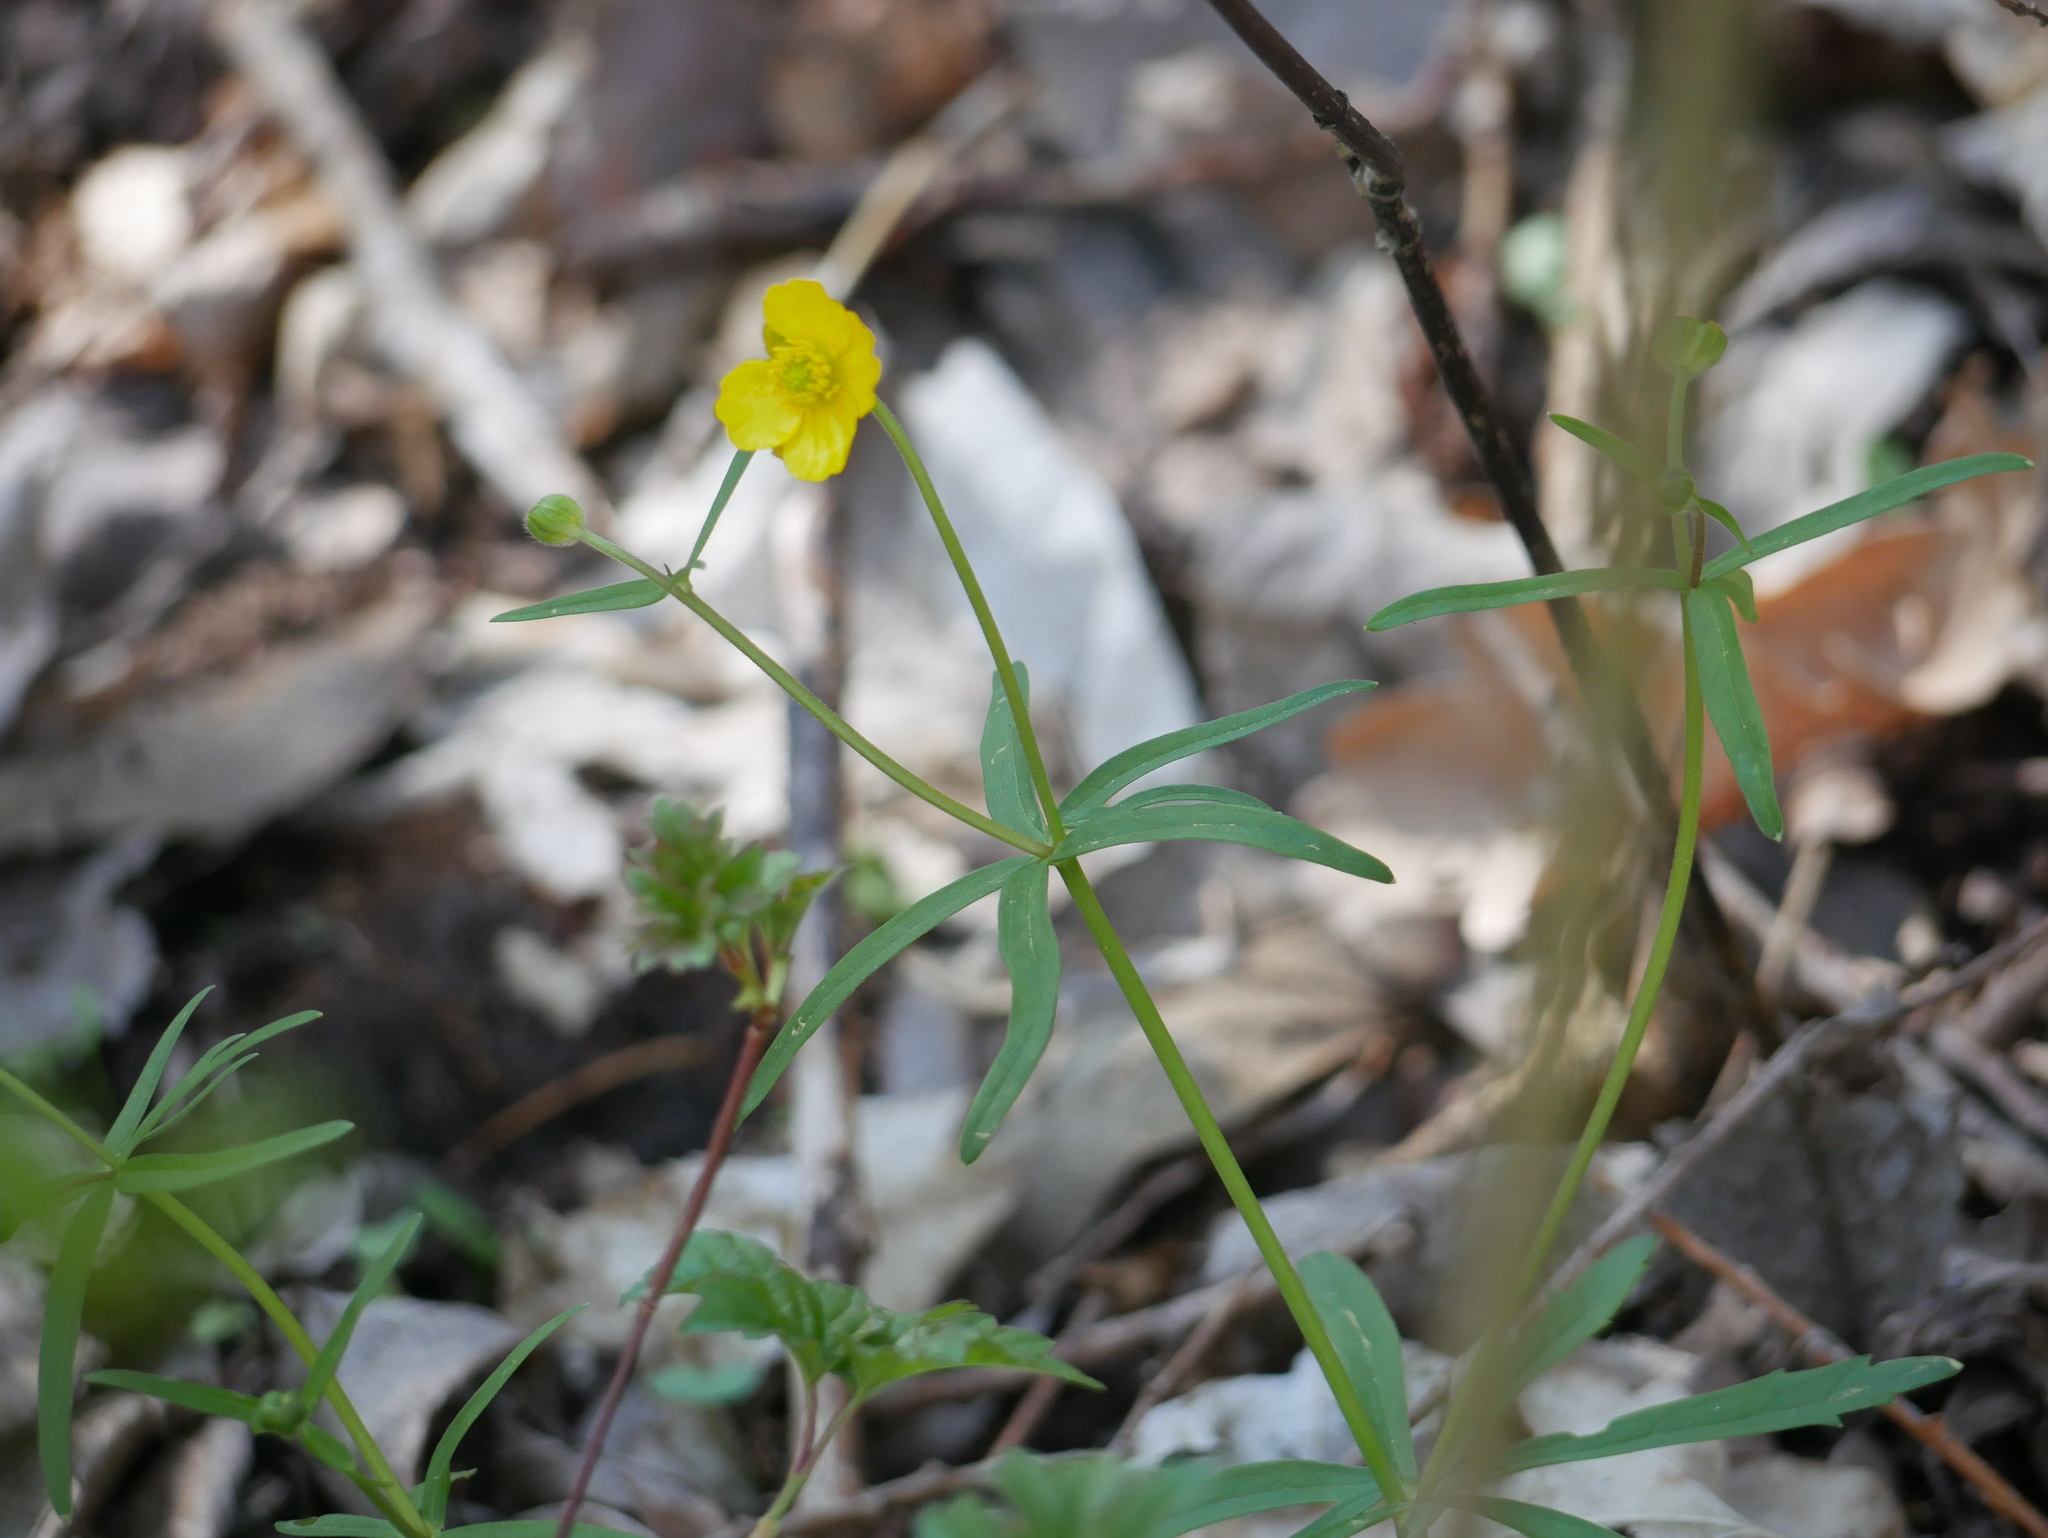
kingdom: Plantae
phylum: Tracheophyta
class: Magnoliopsida
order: Ranunculales
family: Ranunculaceae
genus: Ranunculus
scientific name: Ranunculus auricomus
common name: Goldilocks buttercup
